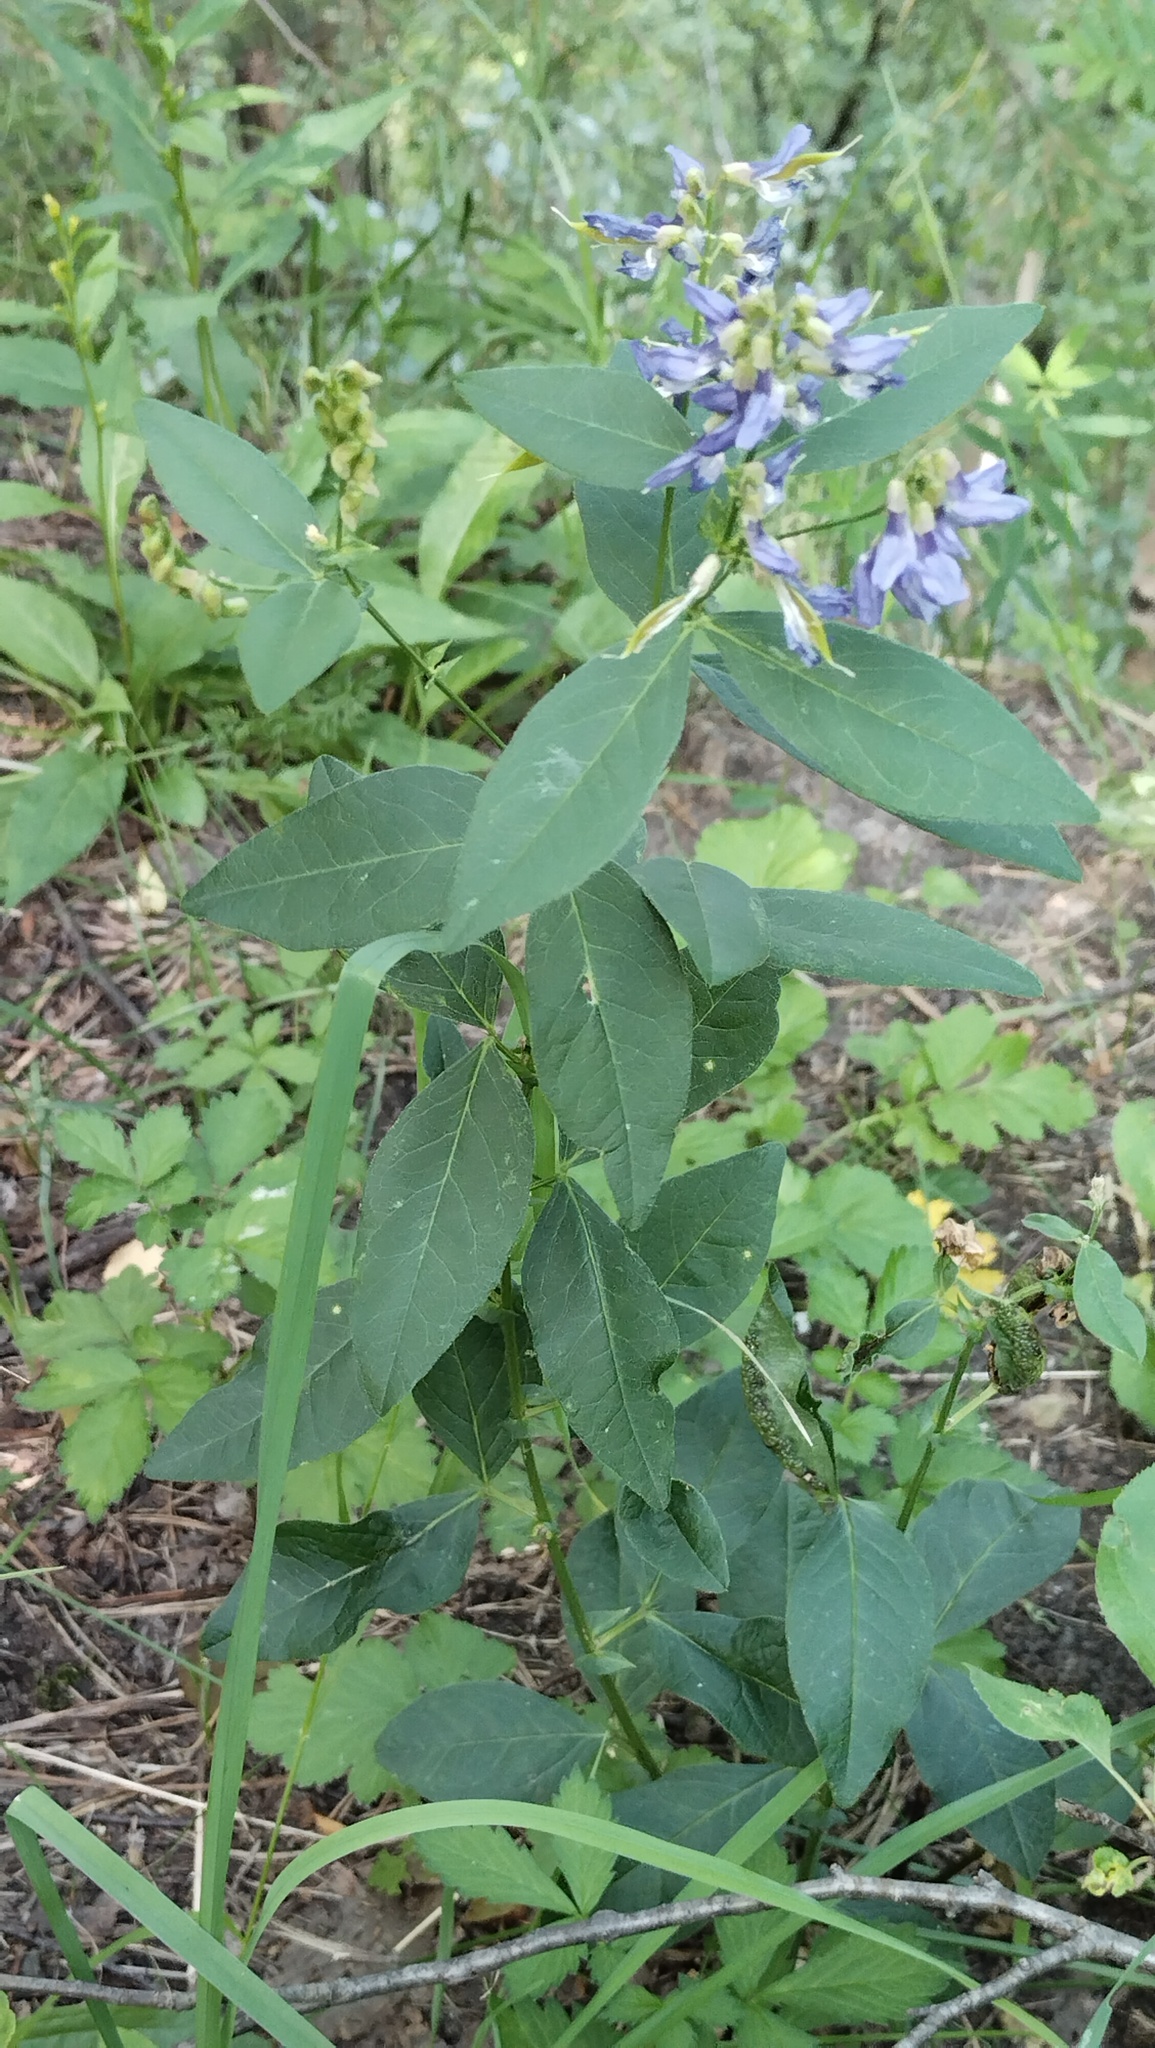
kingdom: Plantae
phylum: Tracheophyta
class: Magnoliopsida
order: Fabales
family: Fabaceae
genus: Vicia
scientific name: Vicia unijuga
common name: Two-leaf vetch
